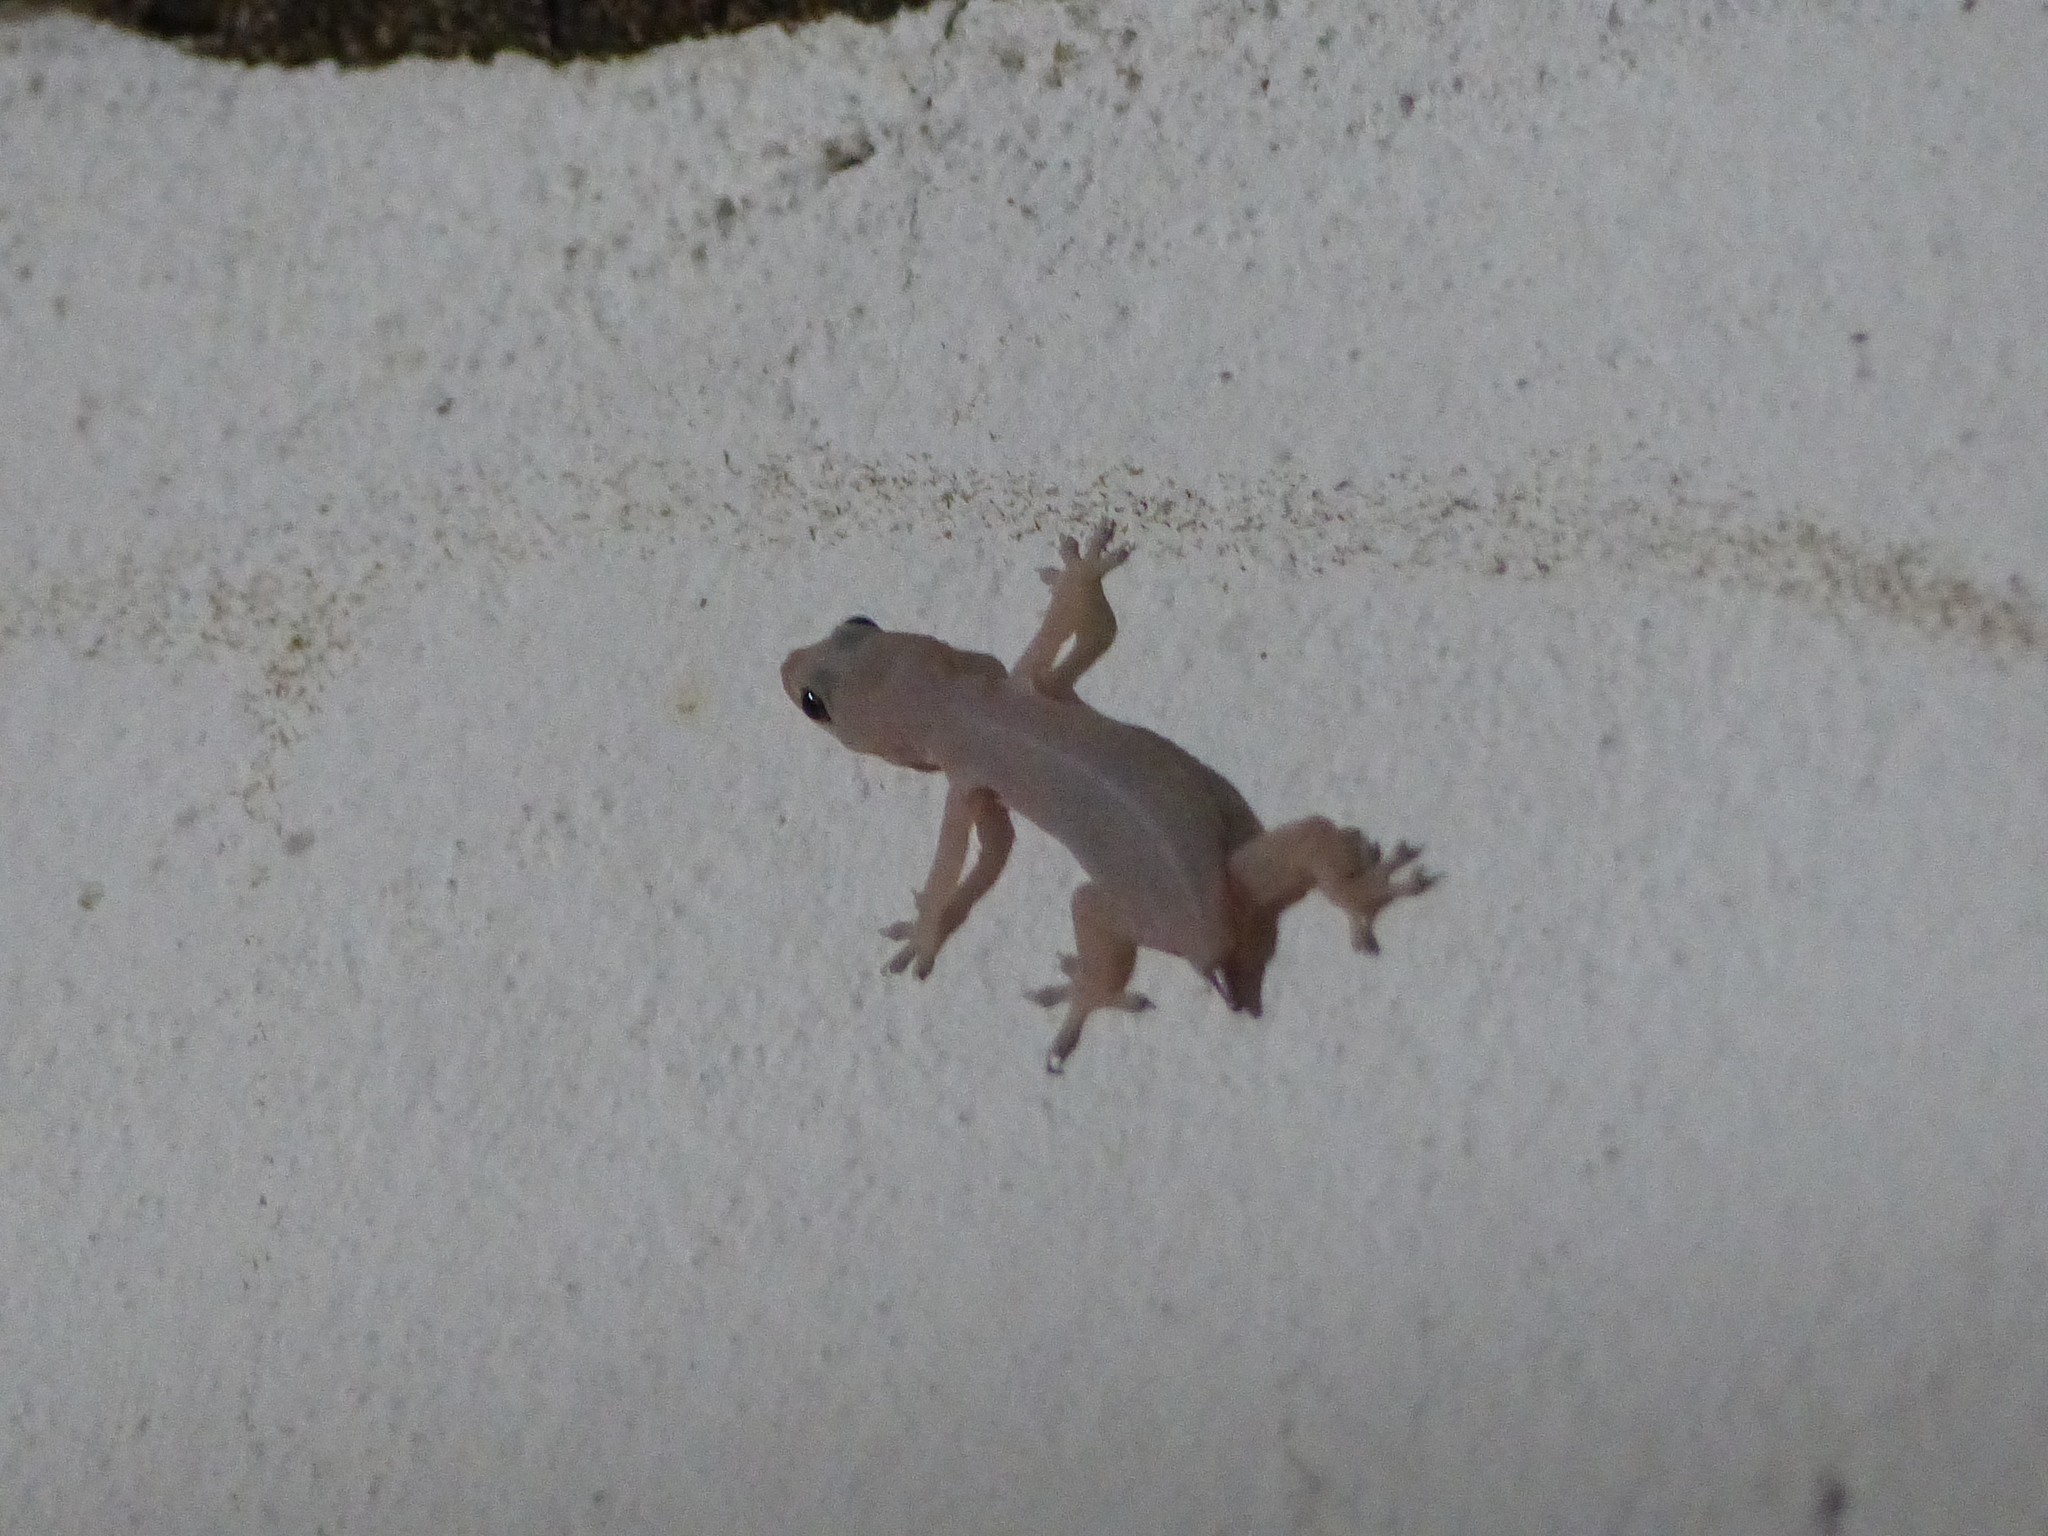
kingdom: Animalia
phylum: Chordata
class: Squamata
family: Gekkonidae
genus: Hemidactylus
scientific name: Hemidactylus frenatus
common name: Common house gecko
